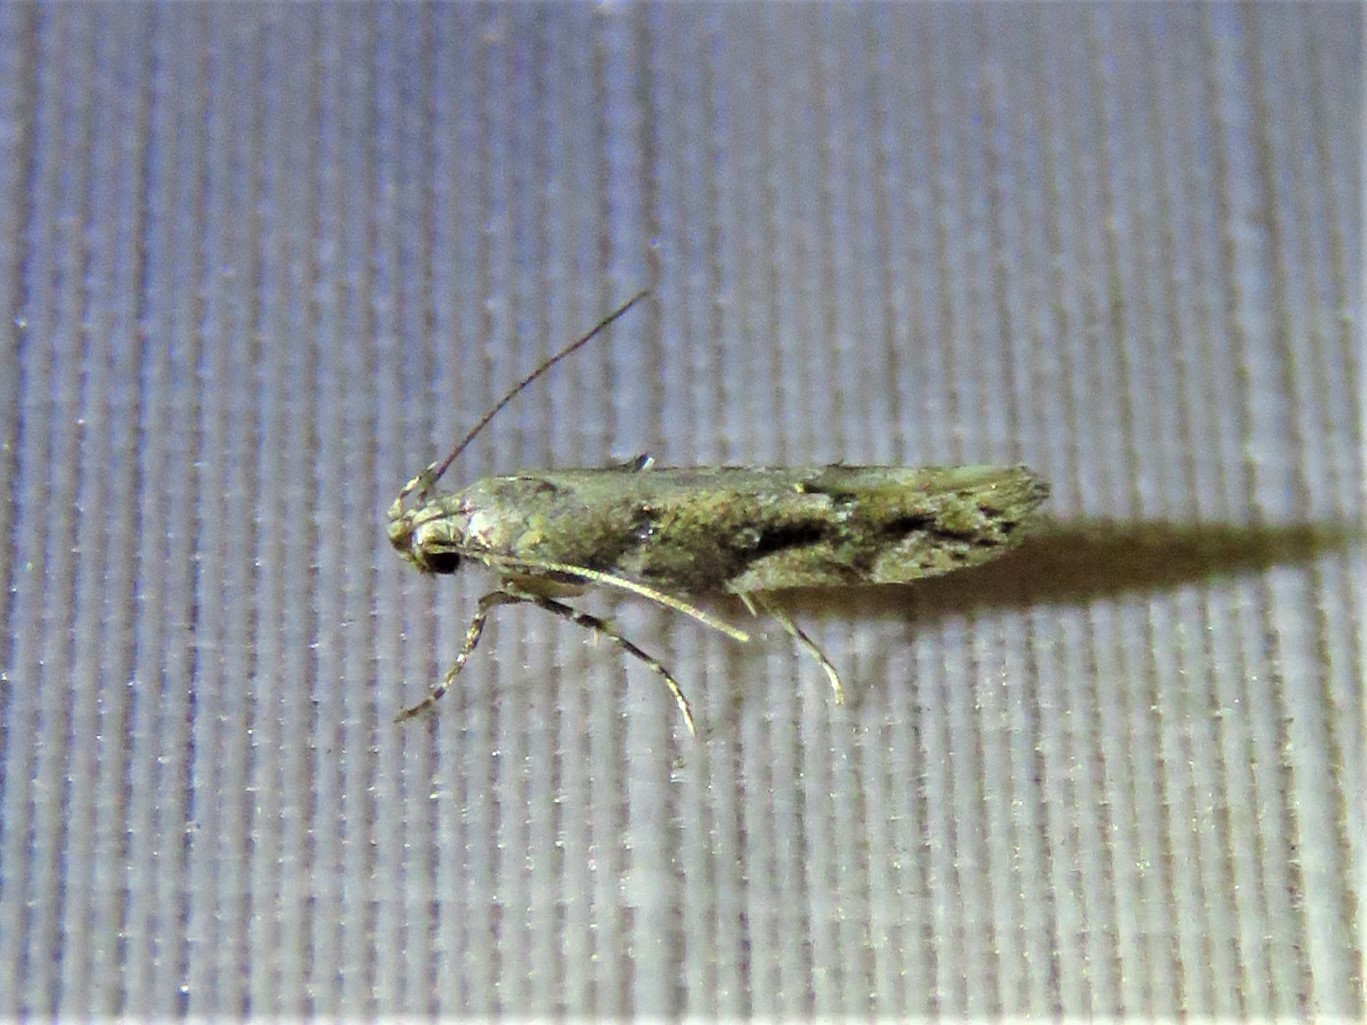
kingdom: Animalia
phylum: Arthropoda
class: Insecta
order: Lepidoptera
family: Gelechiidae
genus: Coleotechnites
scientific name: Coleotechnites florae
